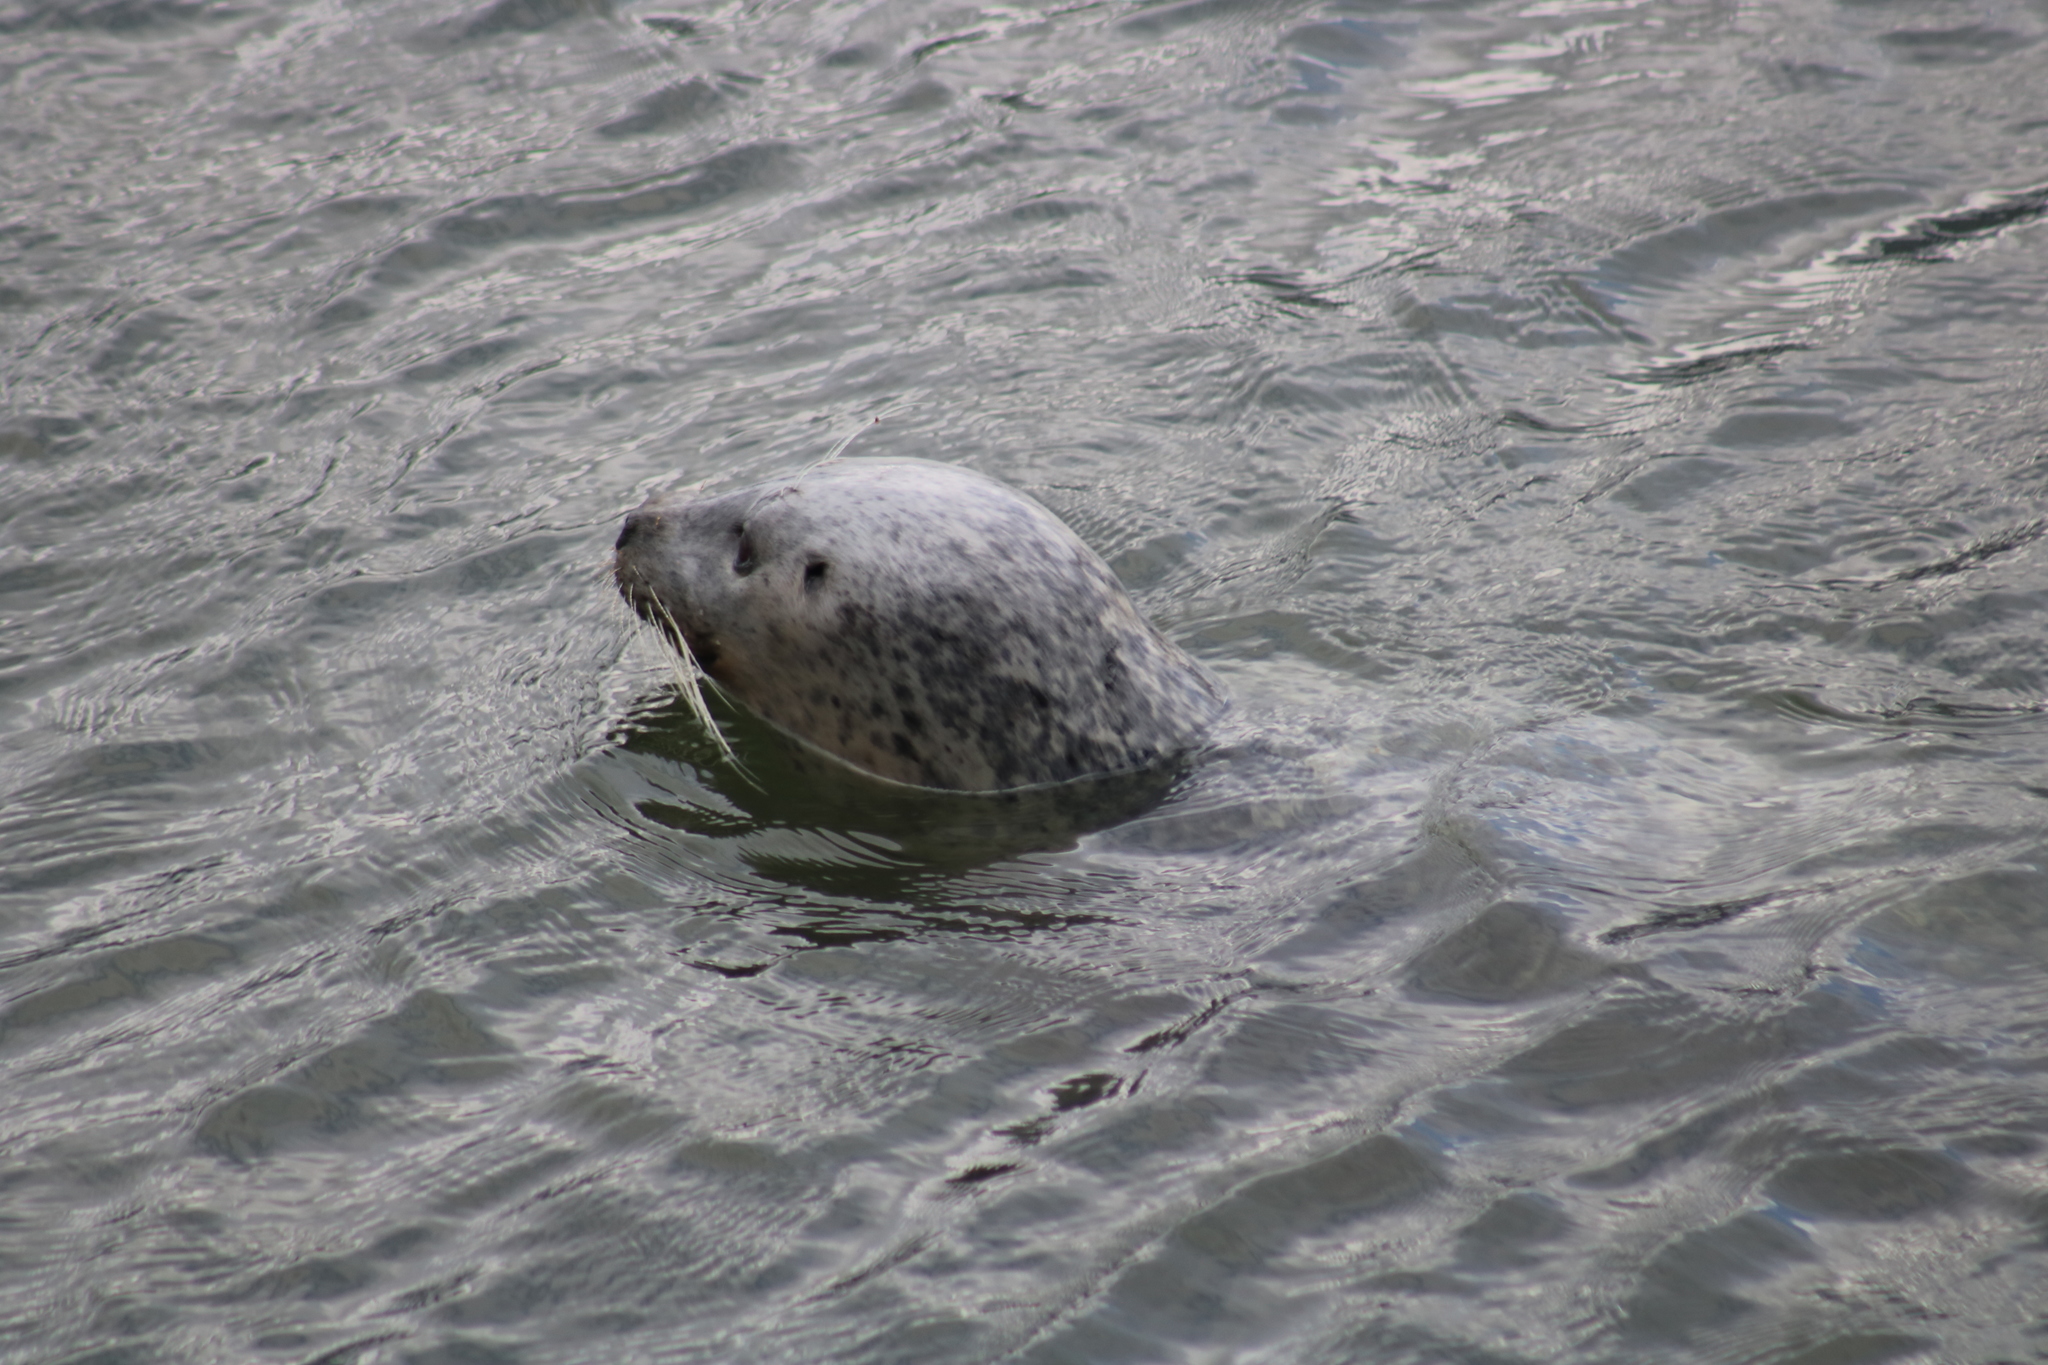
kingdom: Animalia
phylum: Chordata
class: Mammalia
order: Carnivora
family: Phocidae
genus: Phoca
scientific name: Phoca vitulina
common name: Harbor seal
